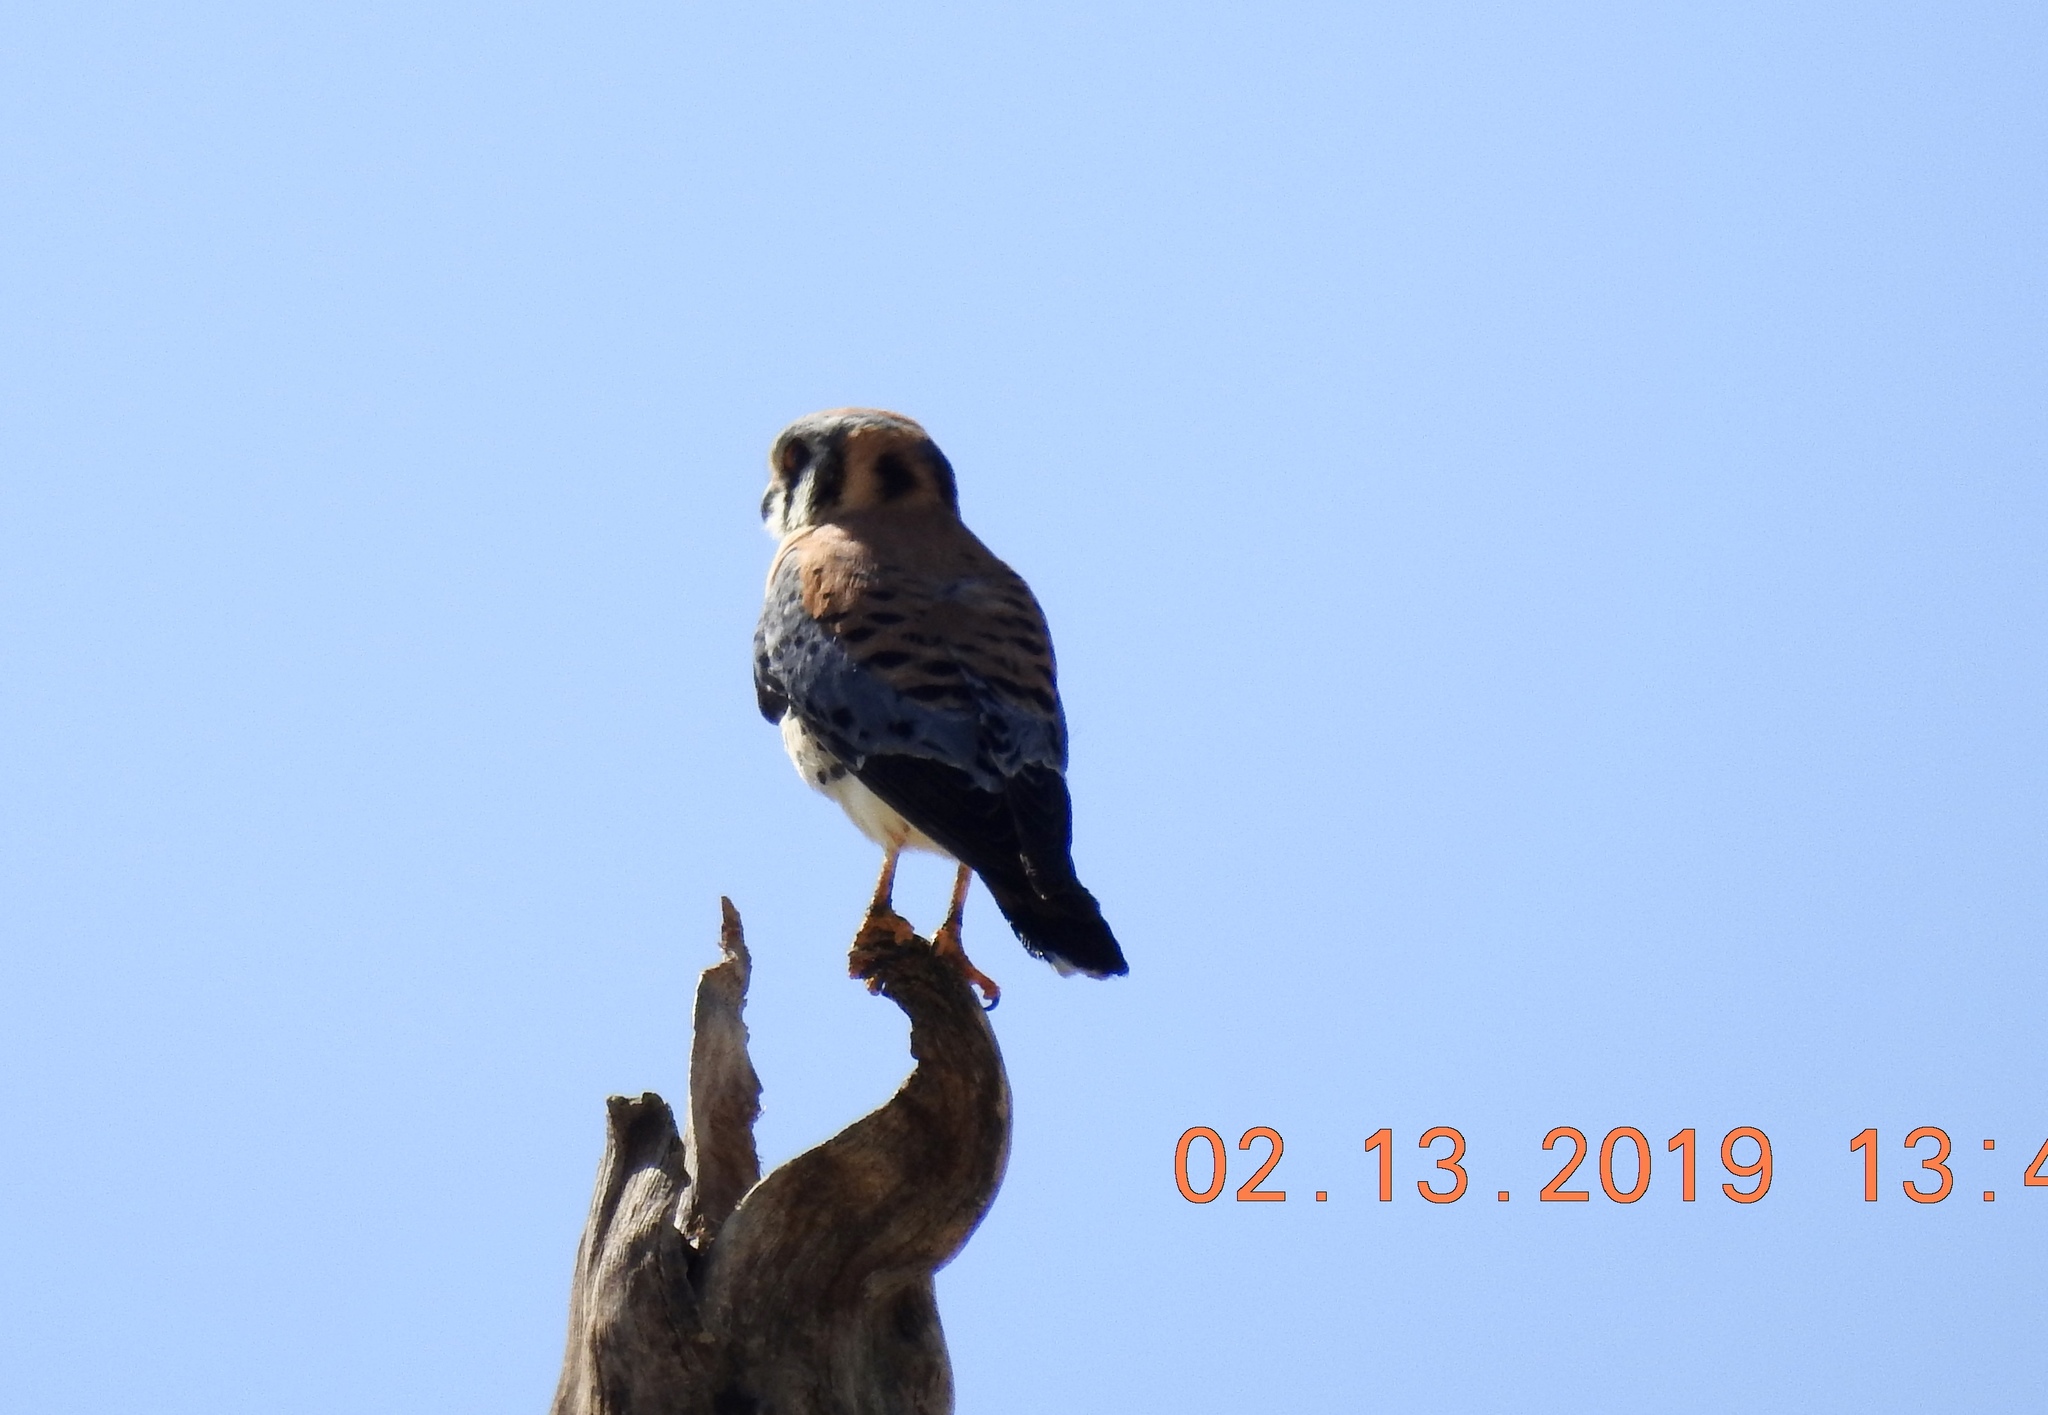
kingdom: Animalia
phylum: Chordata
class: Aves
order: Falconiformes
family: Falconidae
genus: Falco
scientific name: Falco sparverius
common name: American kestrel
